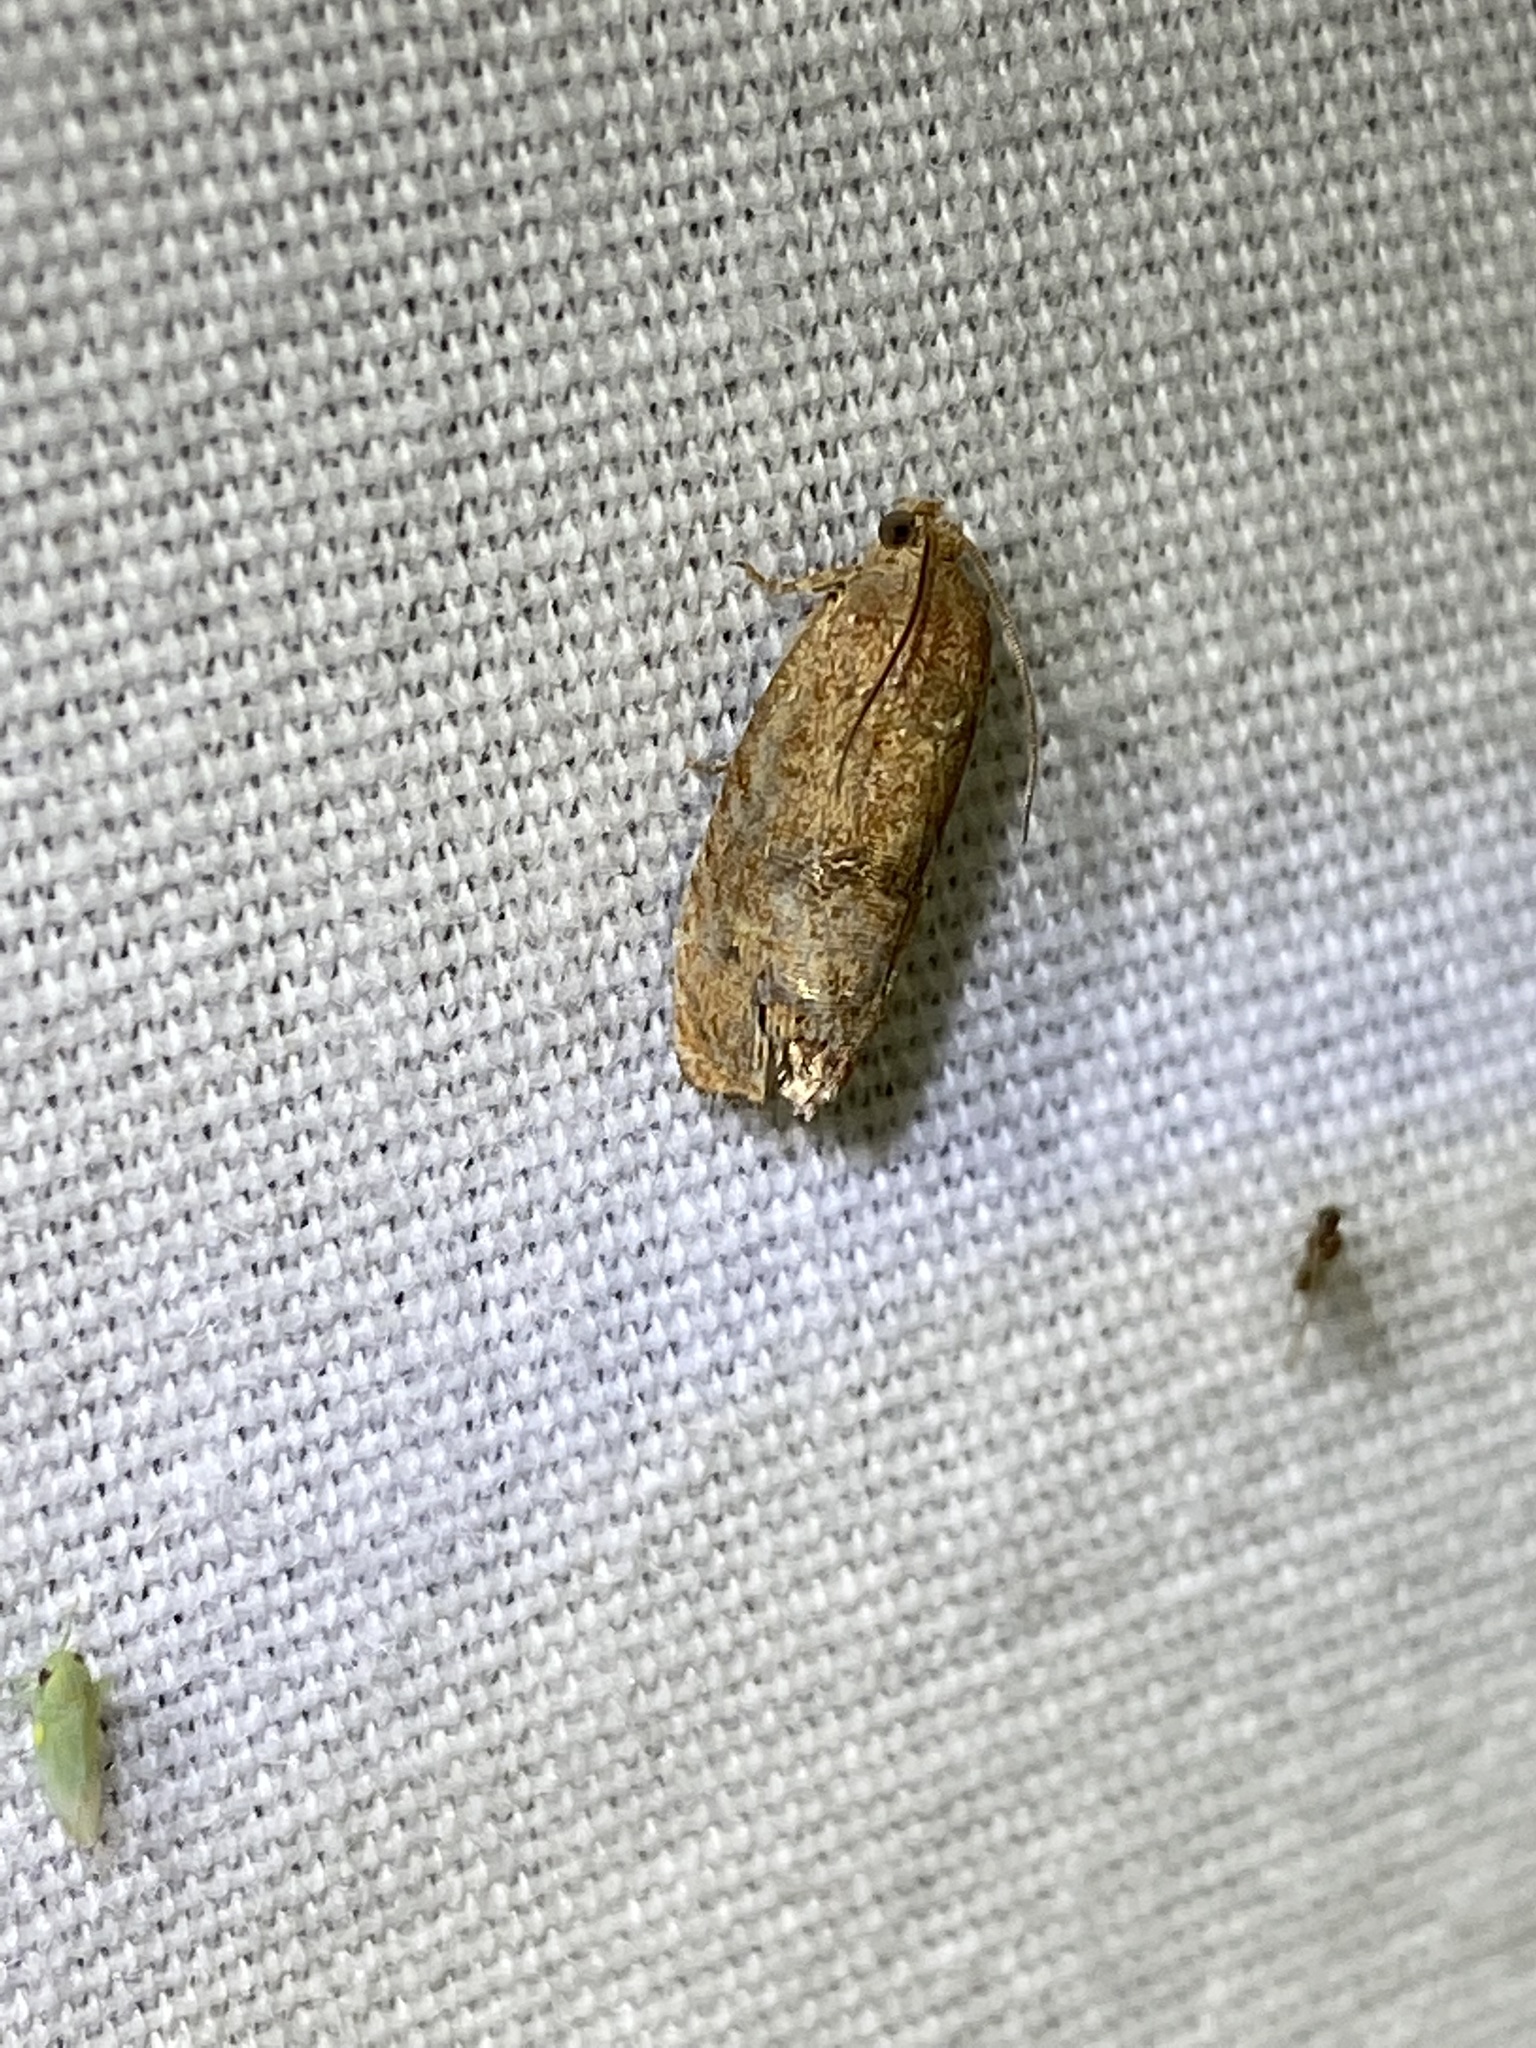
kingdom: Animalia
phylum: Arthropoda
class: Insecta
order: Lepidoptera
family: Tortricidae
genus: Cydia
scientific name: Cydia latiferreana
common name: Filbertworm moth
